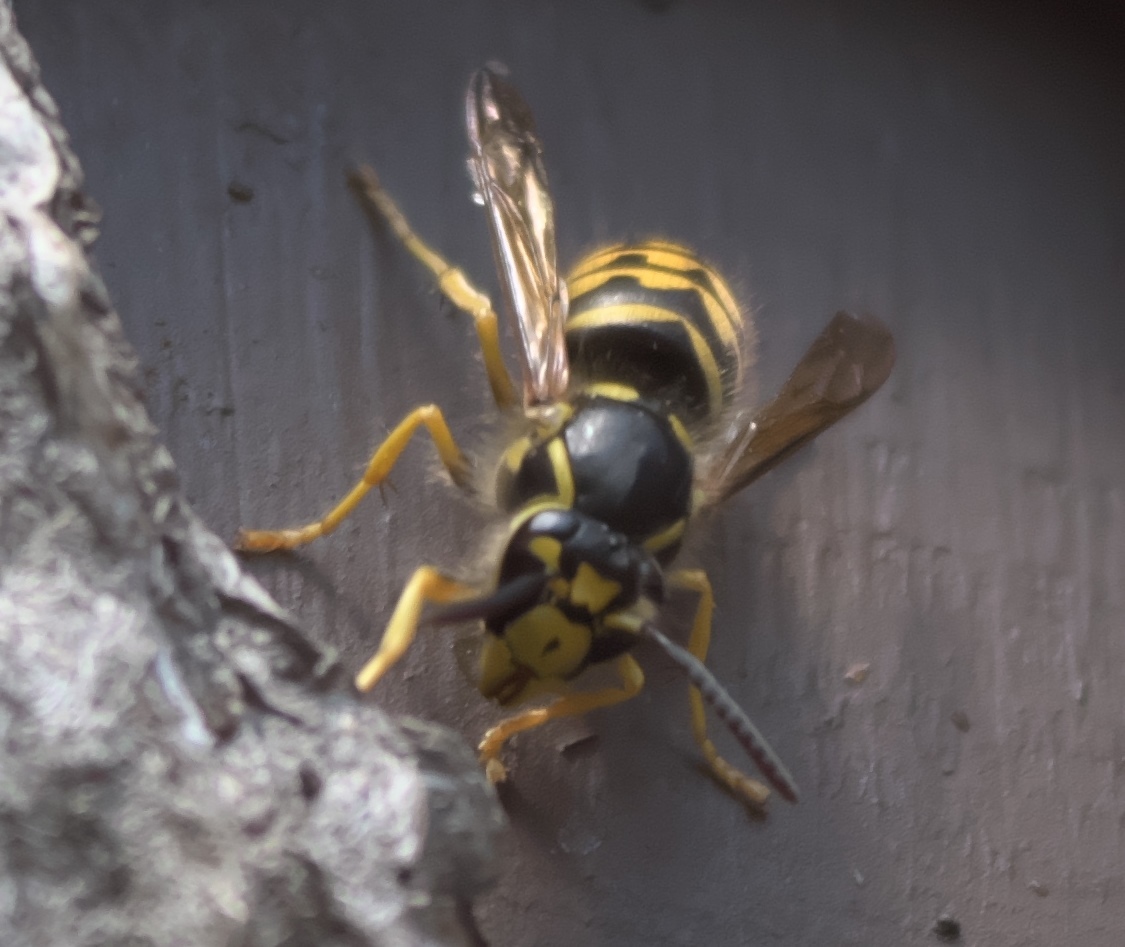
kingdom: Animalia
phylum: Arthropoda
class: Insecta
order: Hymenoptera
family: Vespidae
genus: Dolichovespula
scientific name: Dolichovespula arenaria
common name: Aerial yellowjacket
